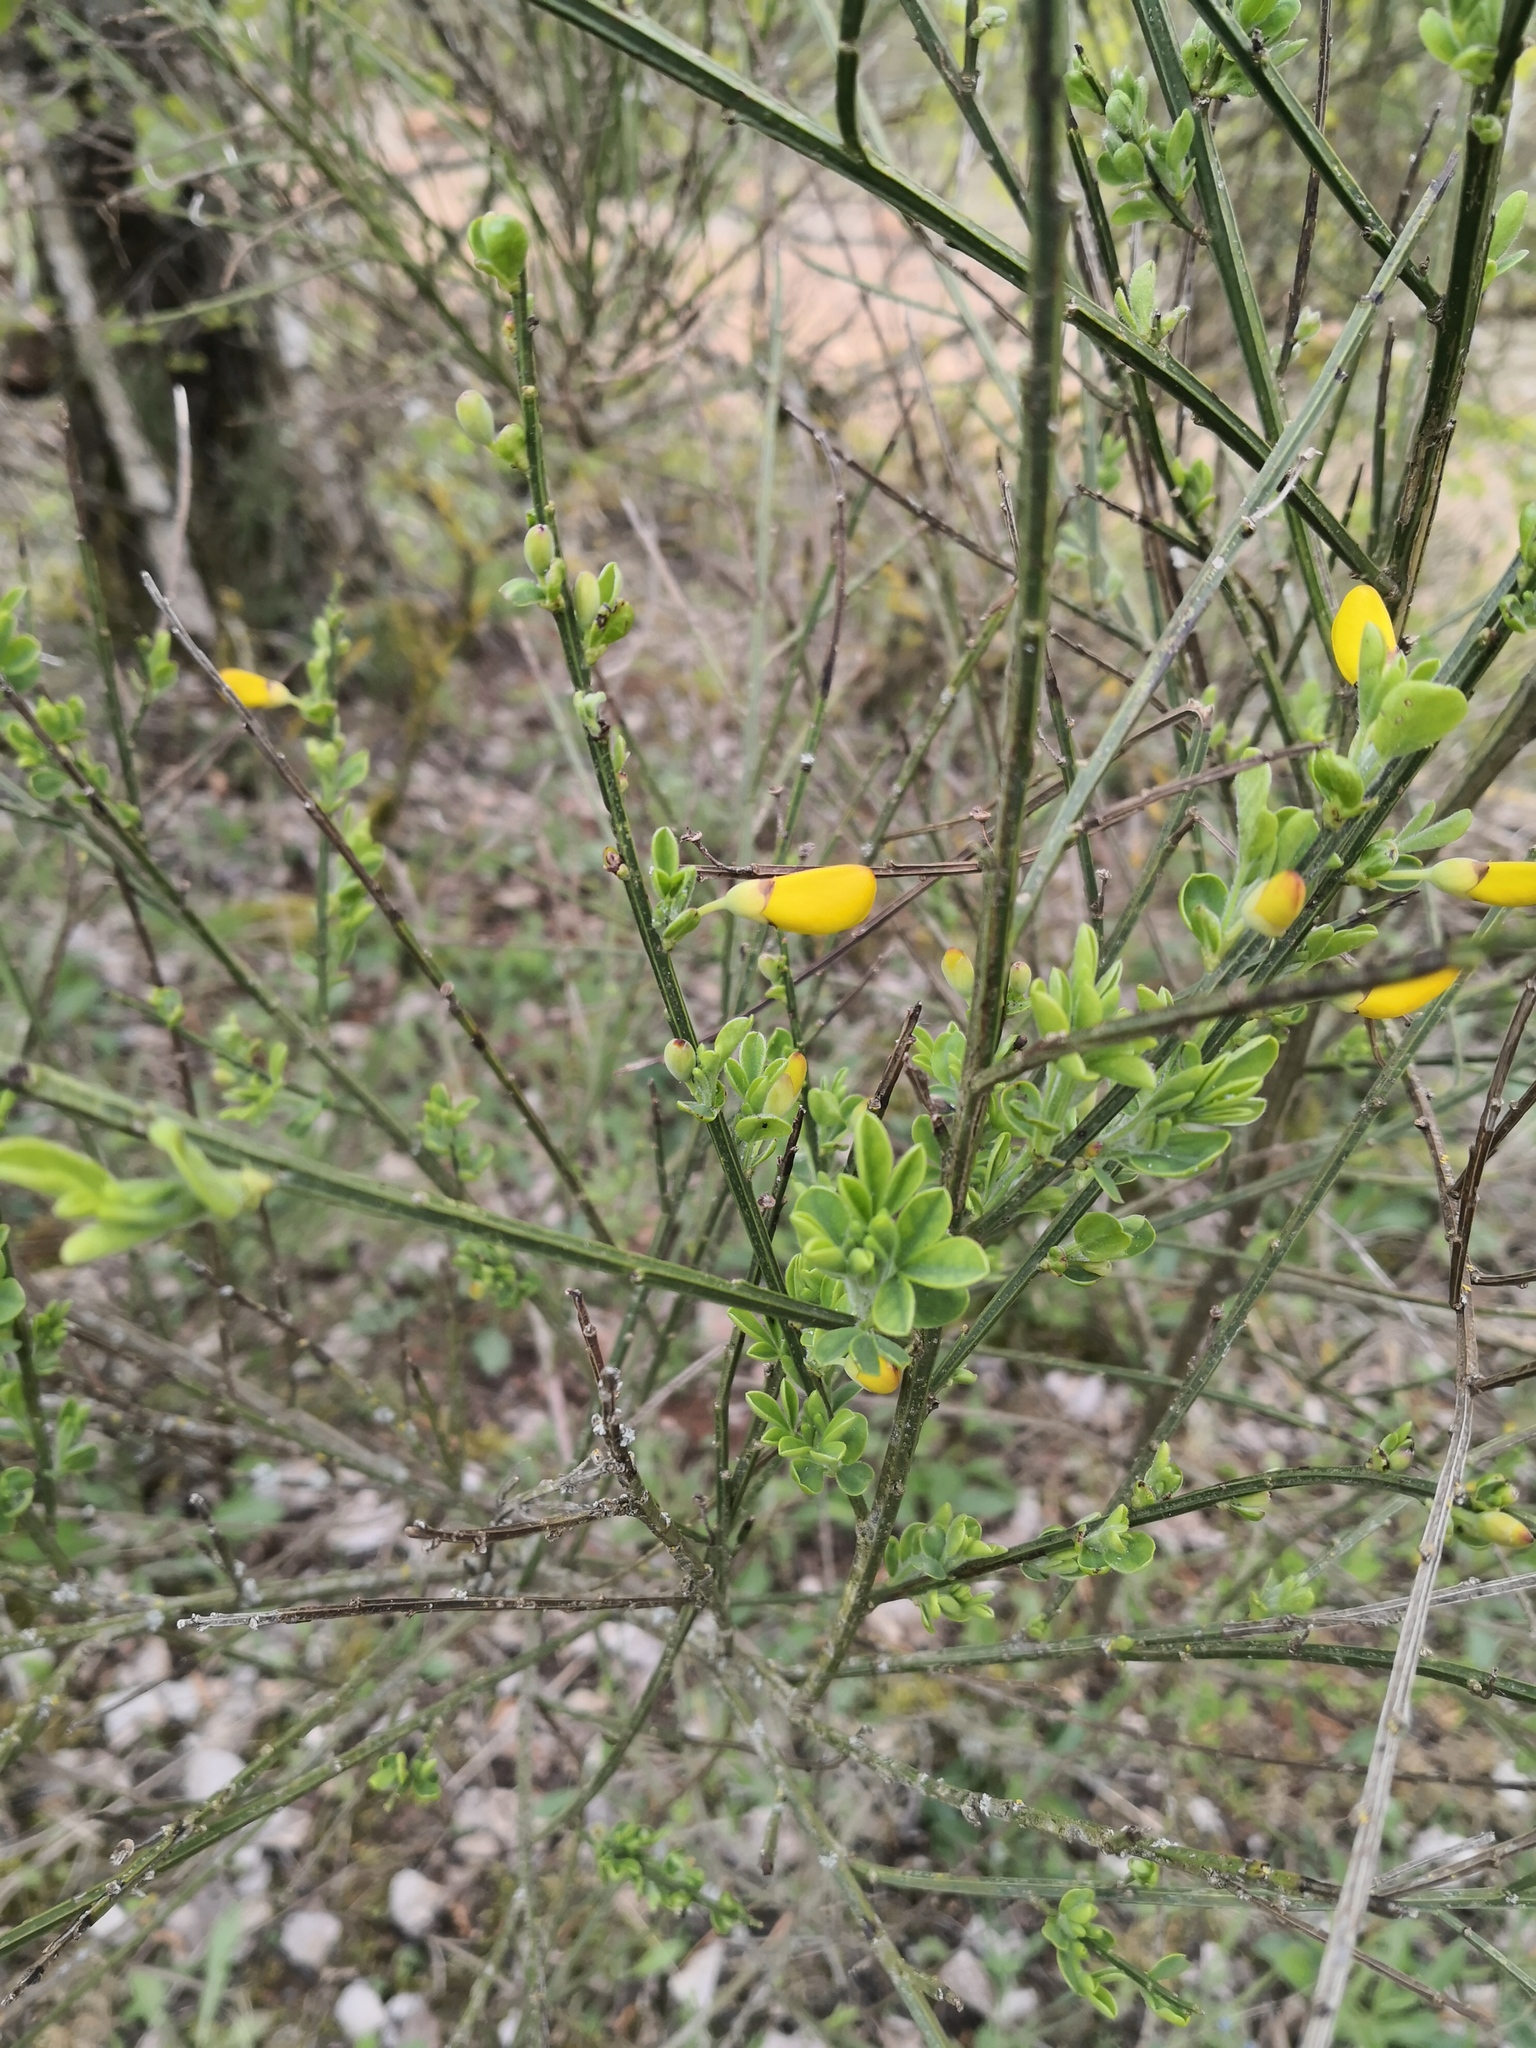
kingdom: Plantae
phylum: Tracheophyta
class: Magnoliopsida
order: Fabales
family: Fabaceae
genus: Cytisus
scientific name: Cytisus scoparius
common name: Scotch broom
